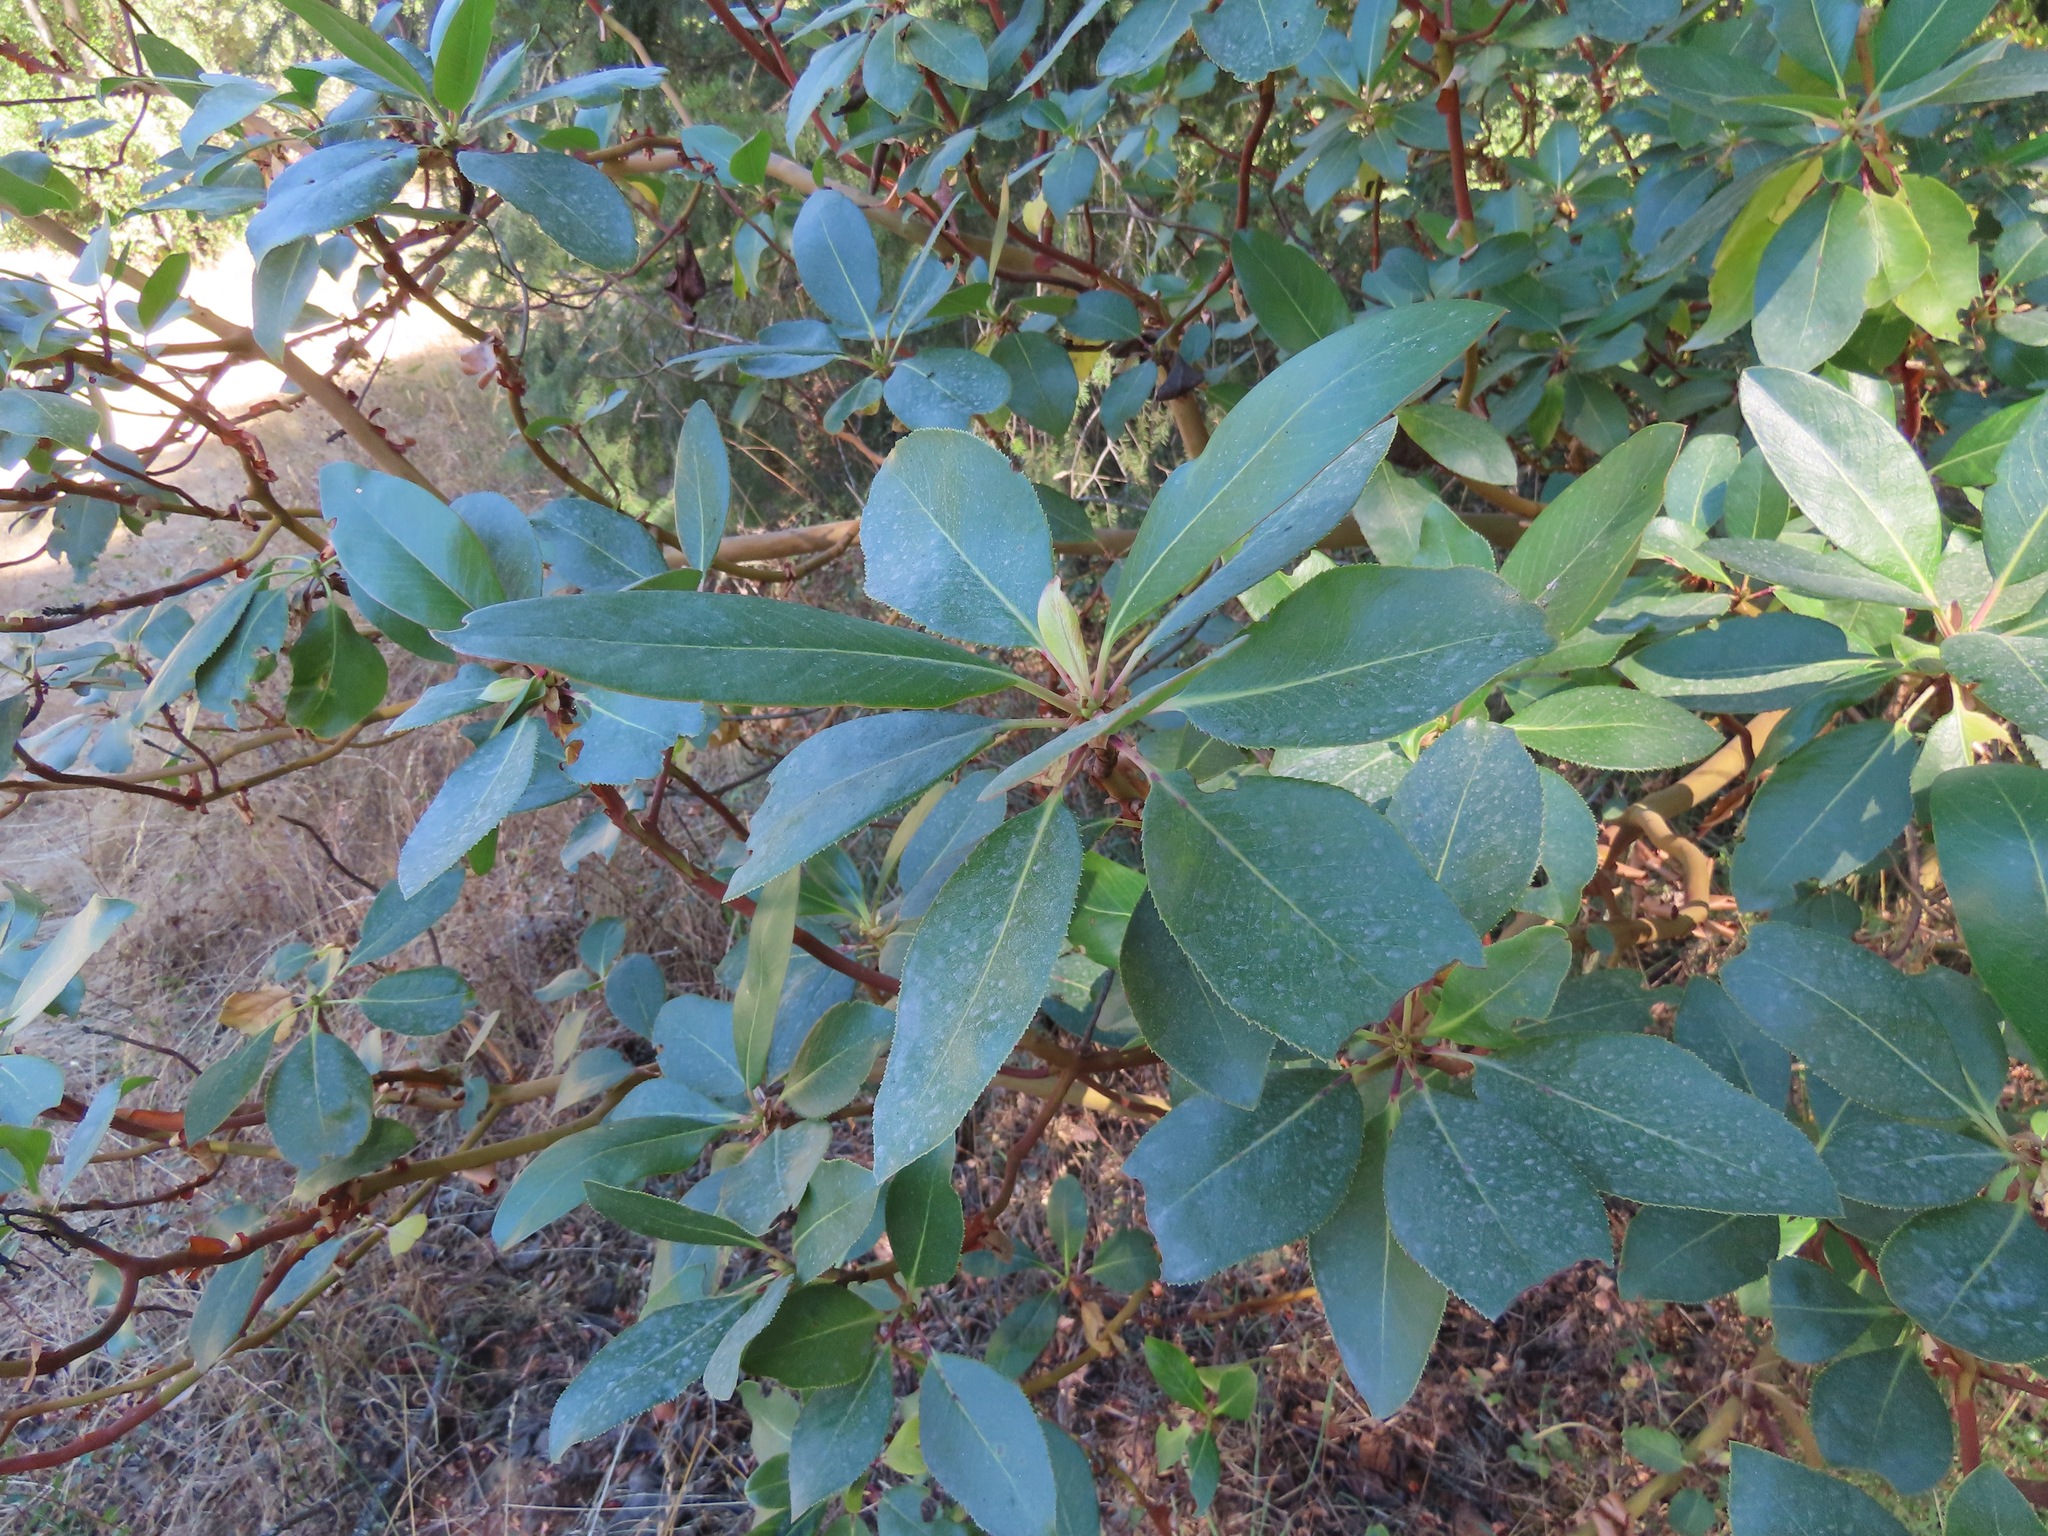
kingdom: Plantae
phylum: Tracheophyta
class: Magnoliopsida
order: Ericales
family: Ericaceae
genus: Arbutus
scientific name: Arbutus menziesii
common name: Pacific madrone
